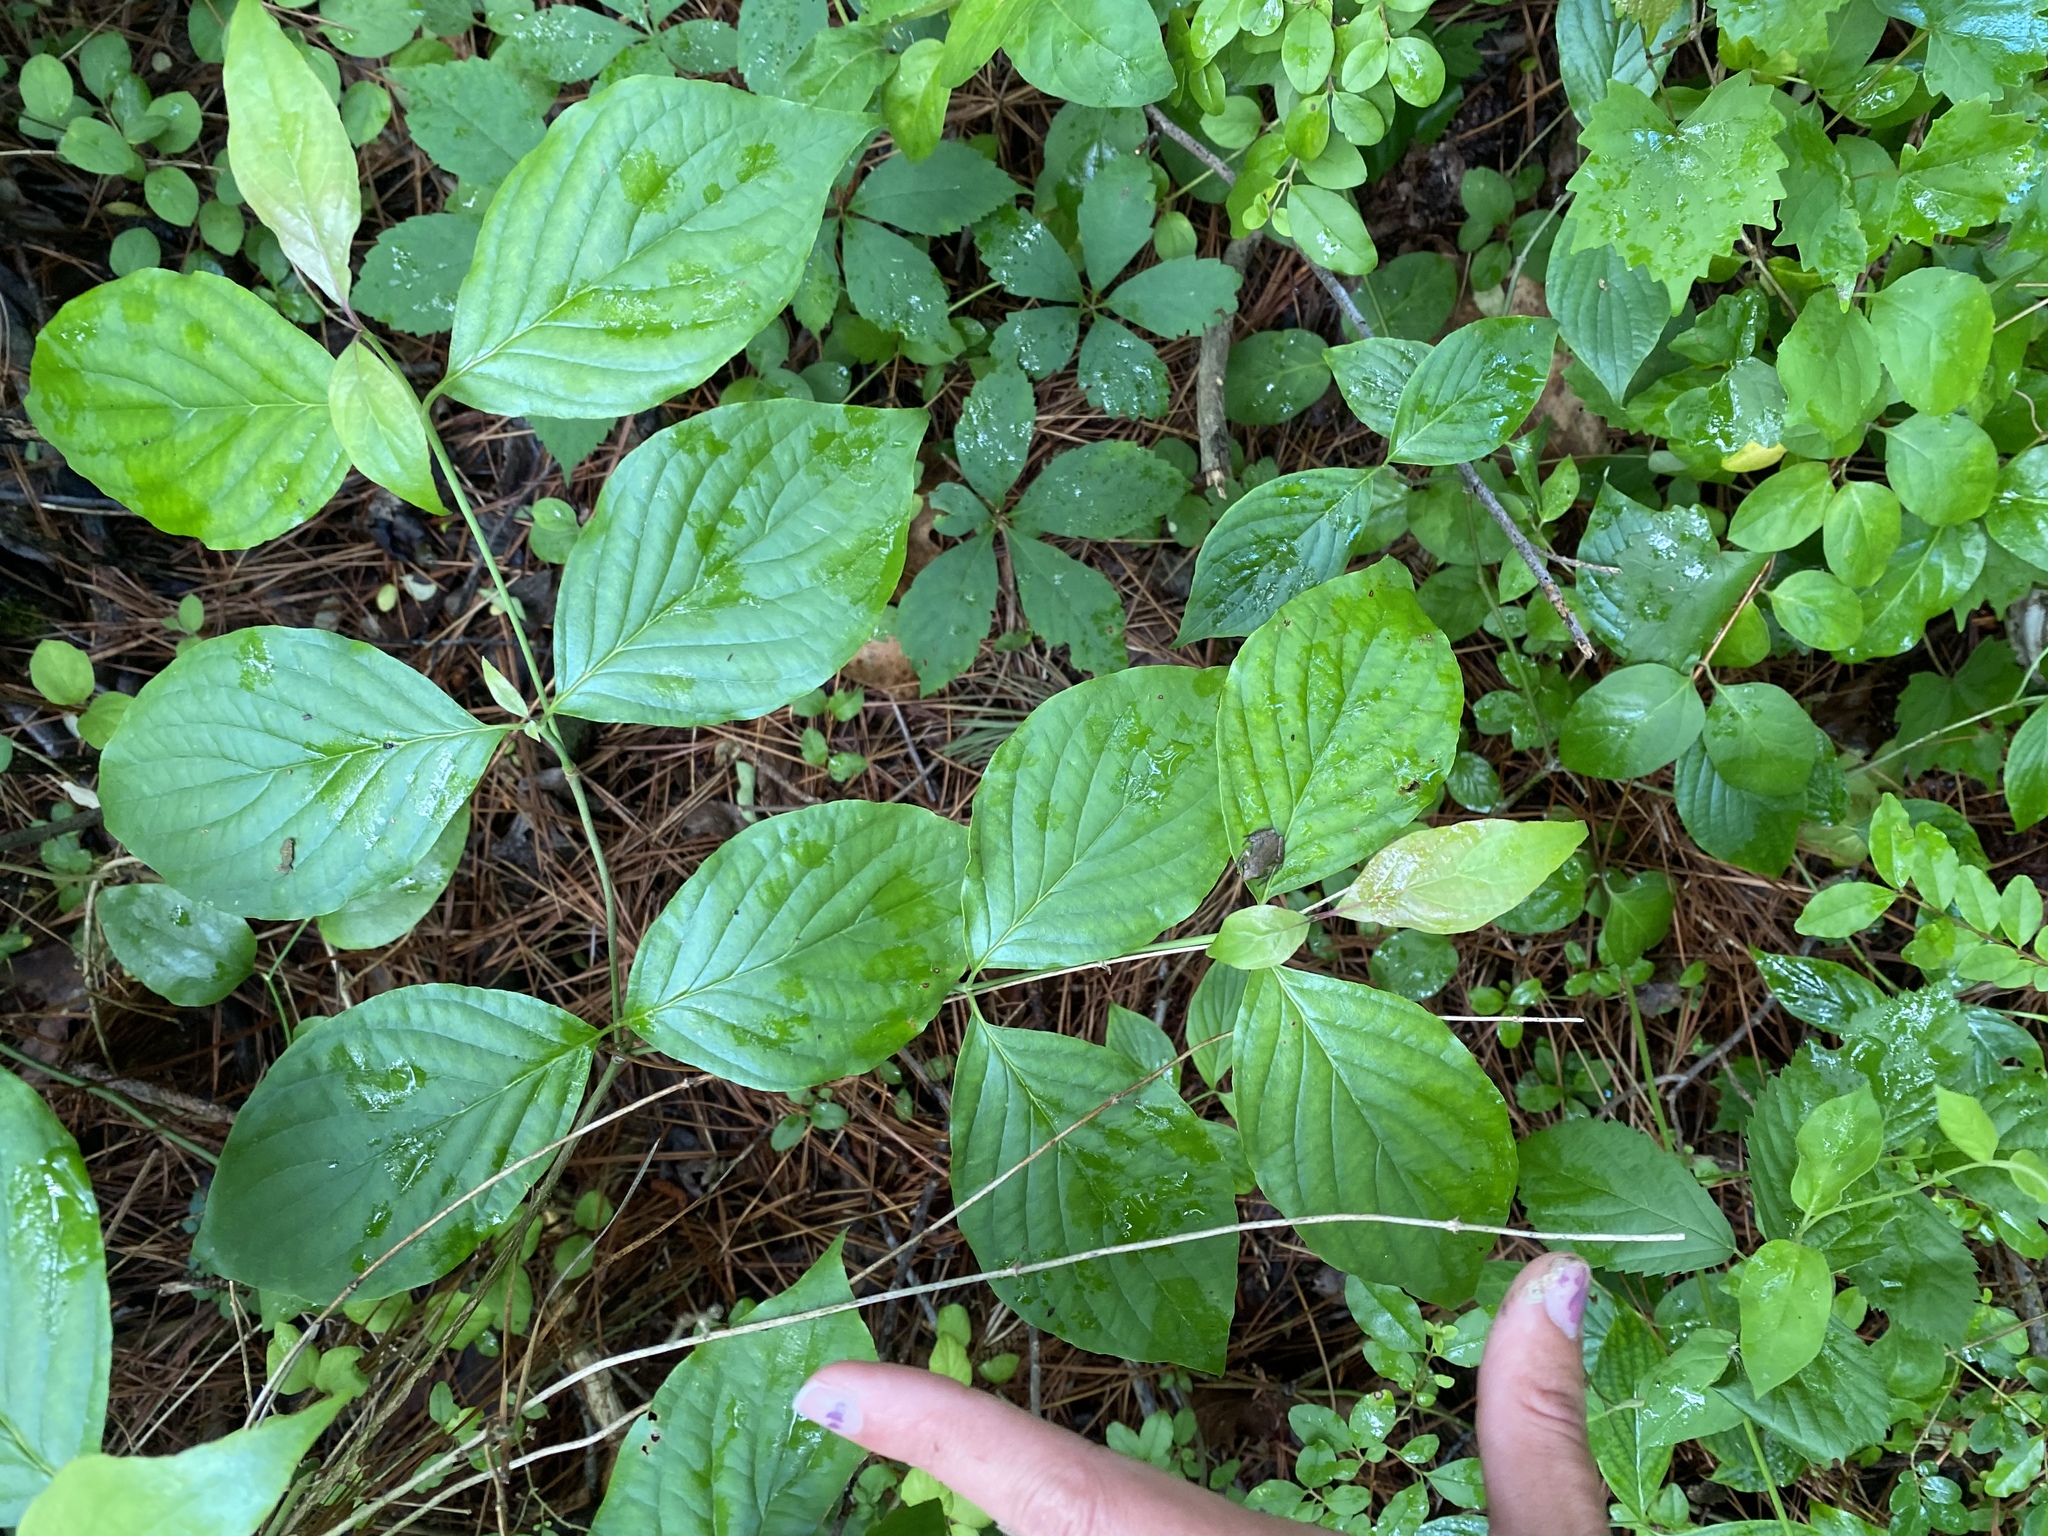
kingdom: Plantae
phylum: Tracheophyta
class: Magnoliopsida
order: Cornales
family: Cornaceae
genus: Cornus
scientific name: Cornus florida
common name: Flowering dogwood
